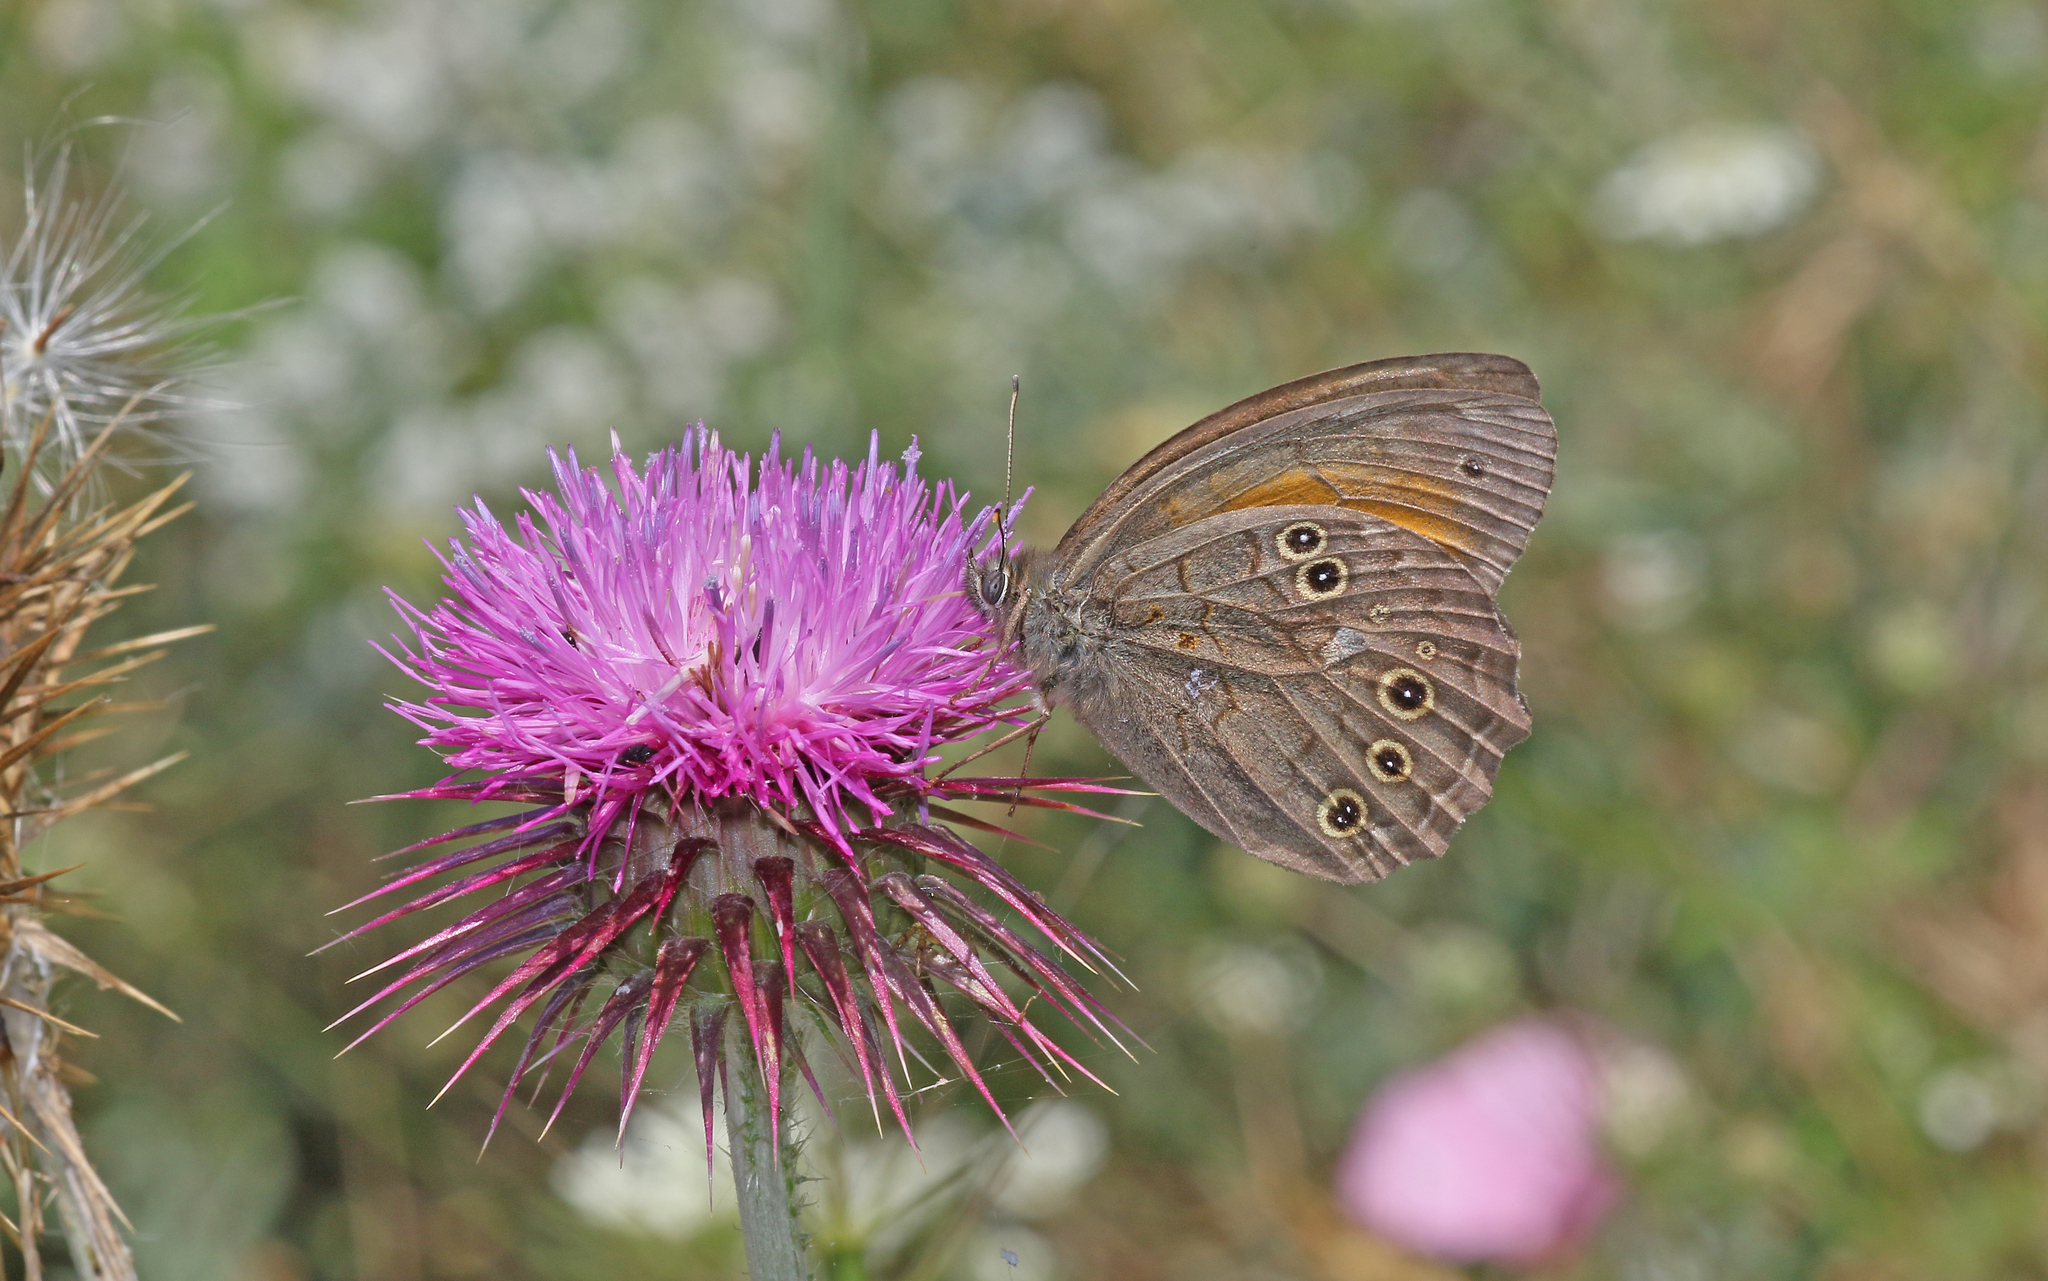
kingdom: Animalia
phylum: Arthropoda
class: Insecta
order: Lepidoptera
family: Nymphalidae
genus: Kirinia
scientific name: Kirinia roxelana
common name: Lattice brown
